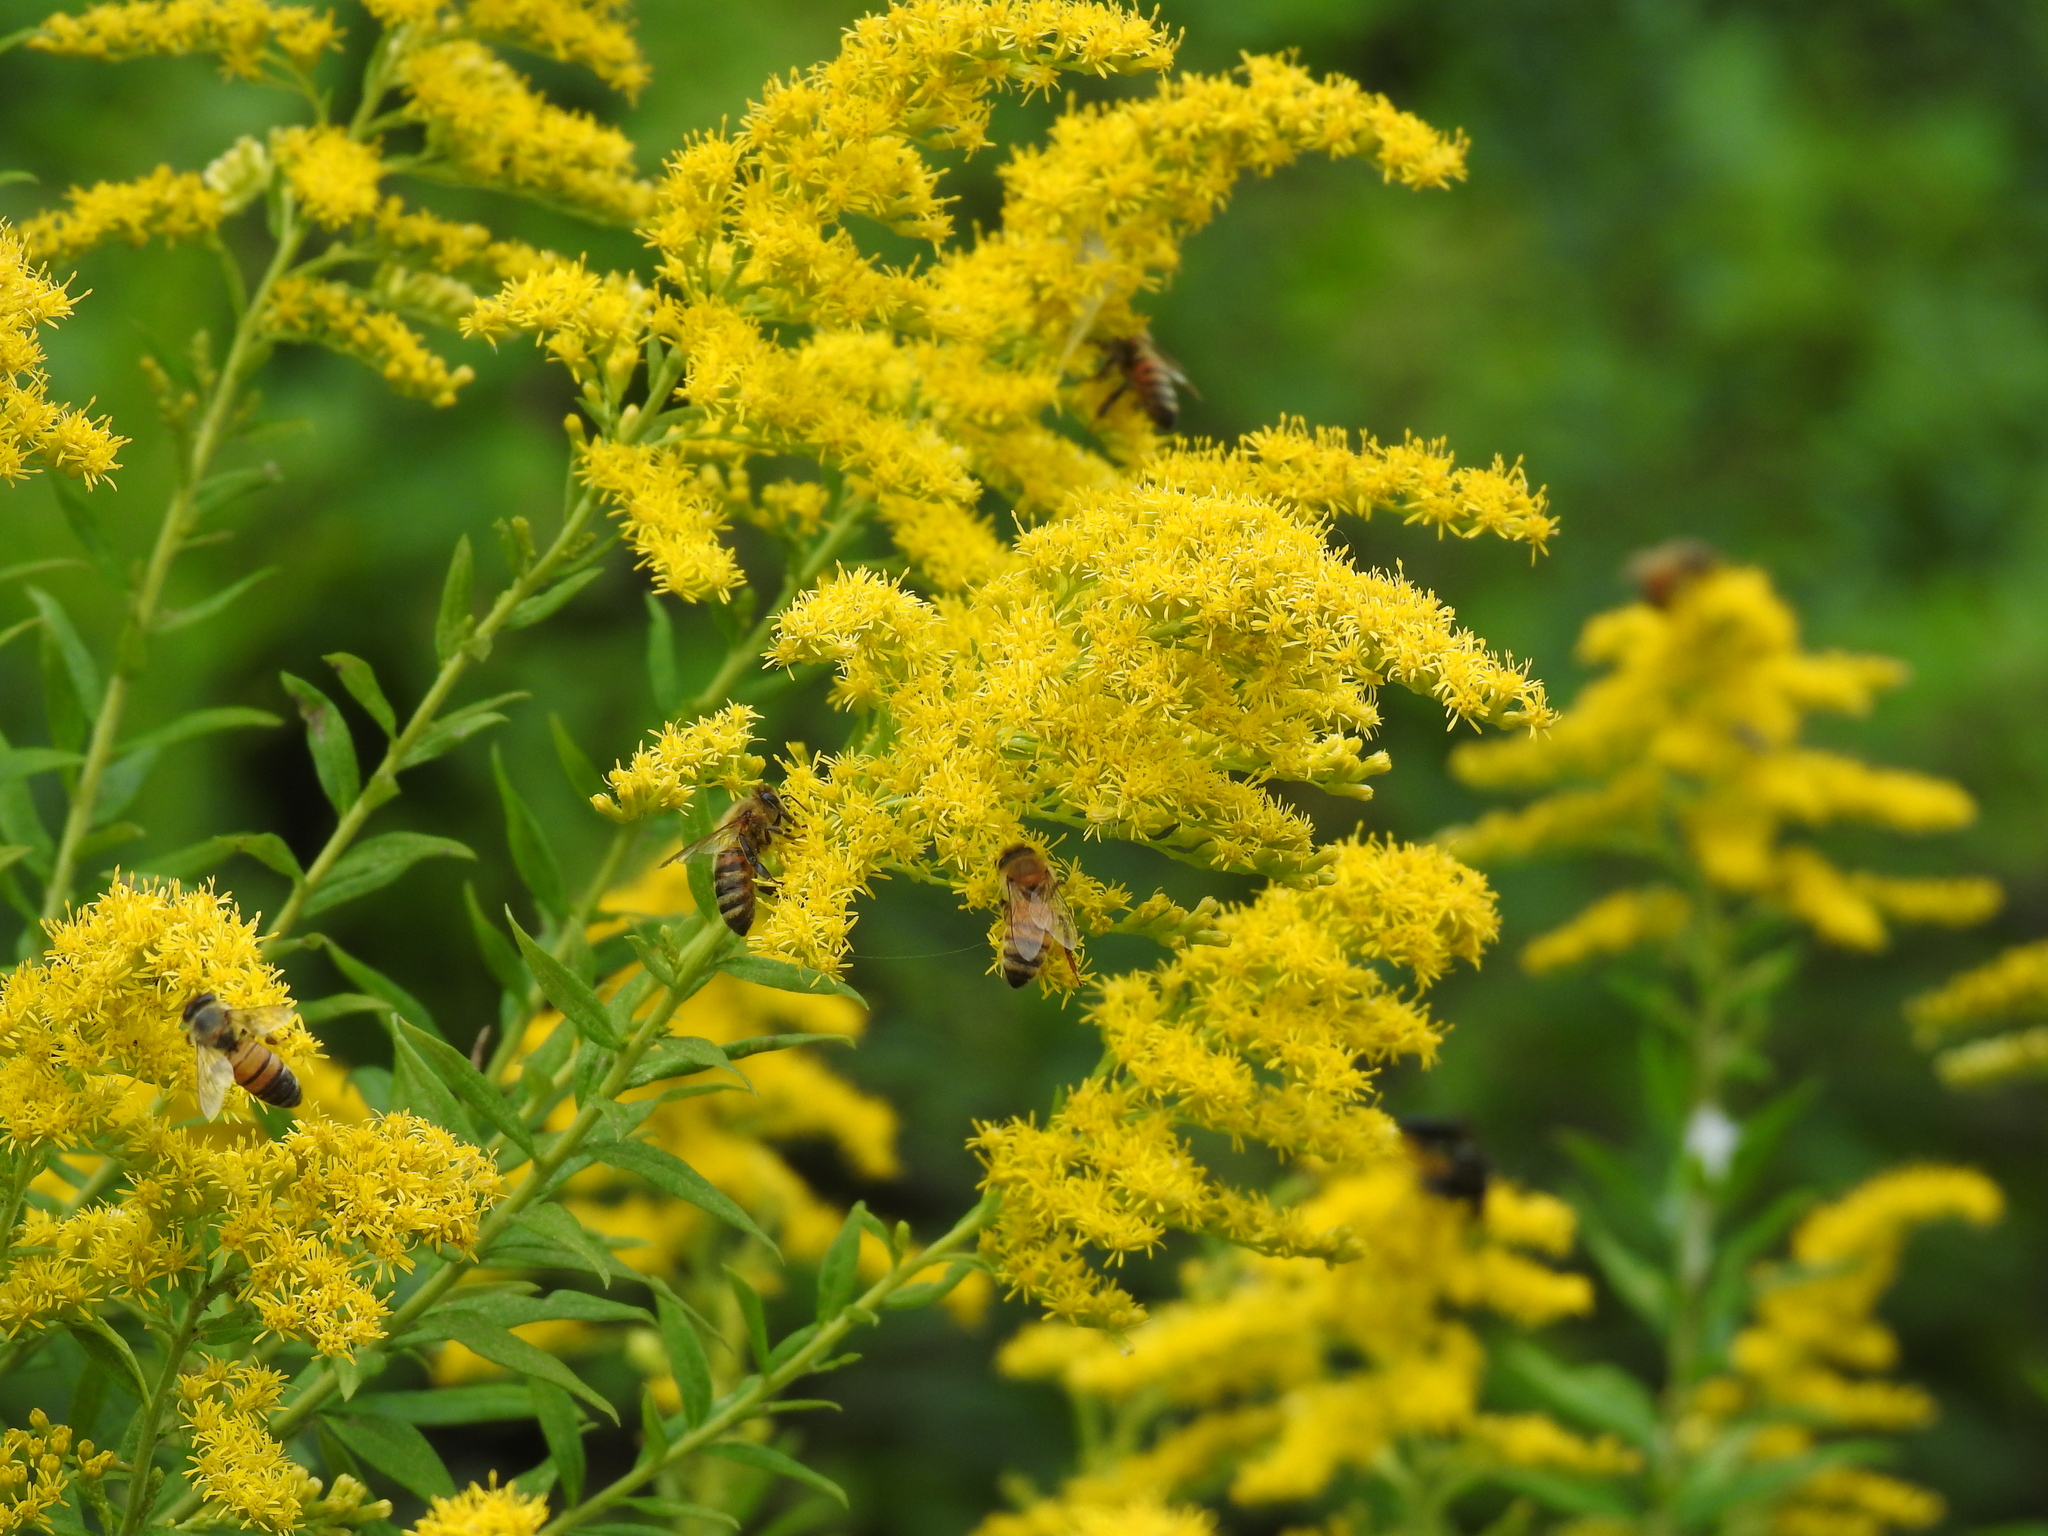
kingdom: Animalia
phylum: Arthropoda
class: Insecta
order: Hymenoptera
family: Apidae
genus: Apis
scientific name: Apis mellifera
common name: Honey bee
